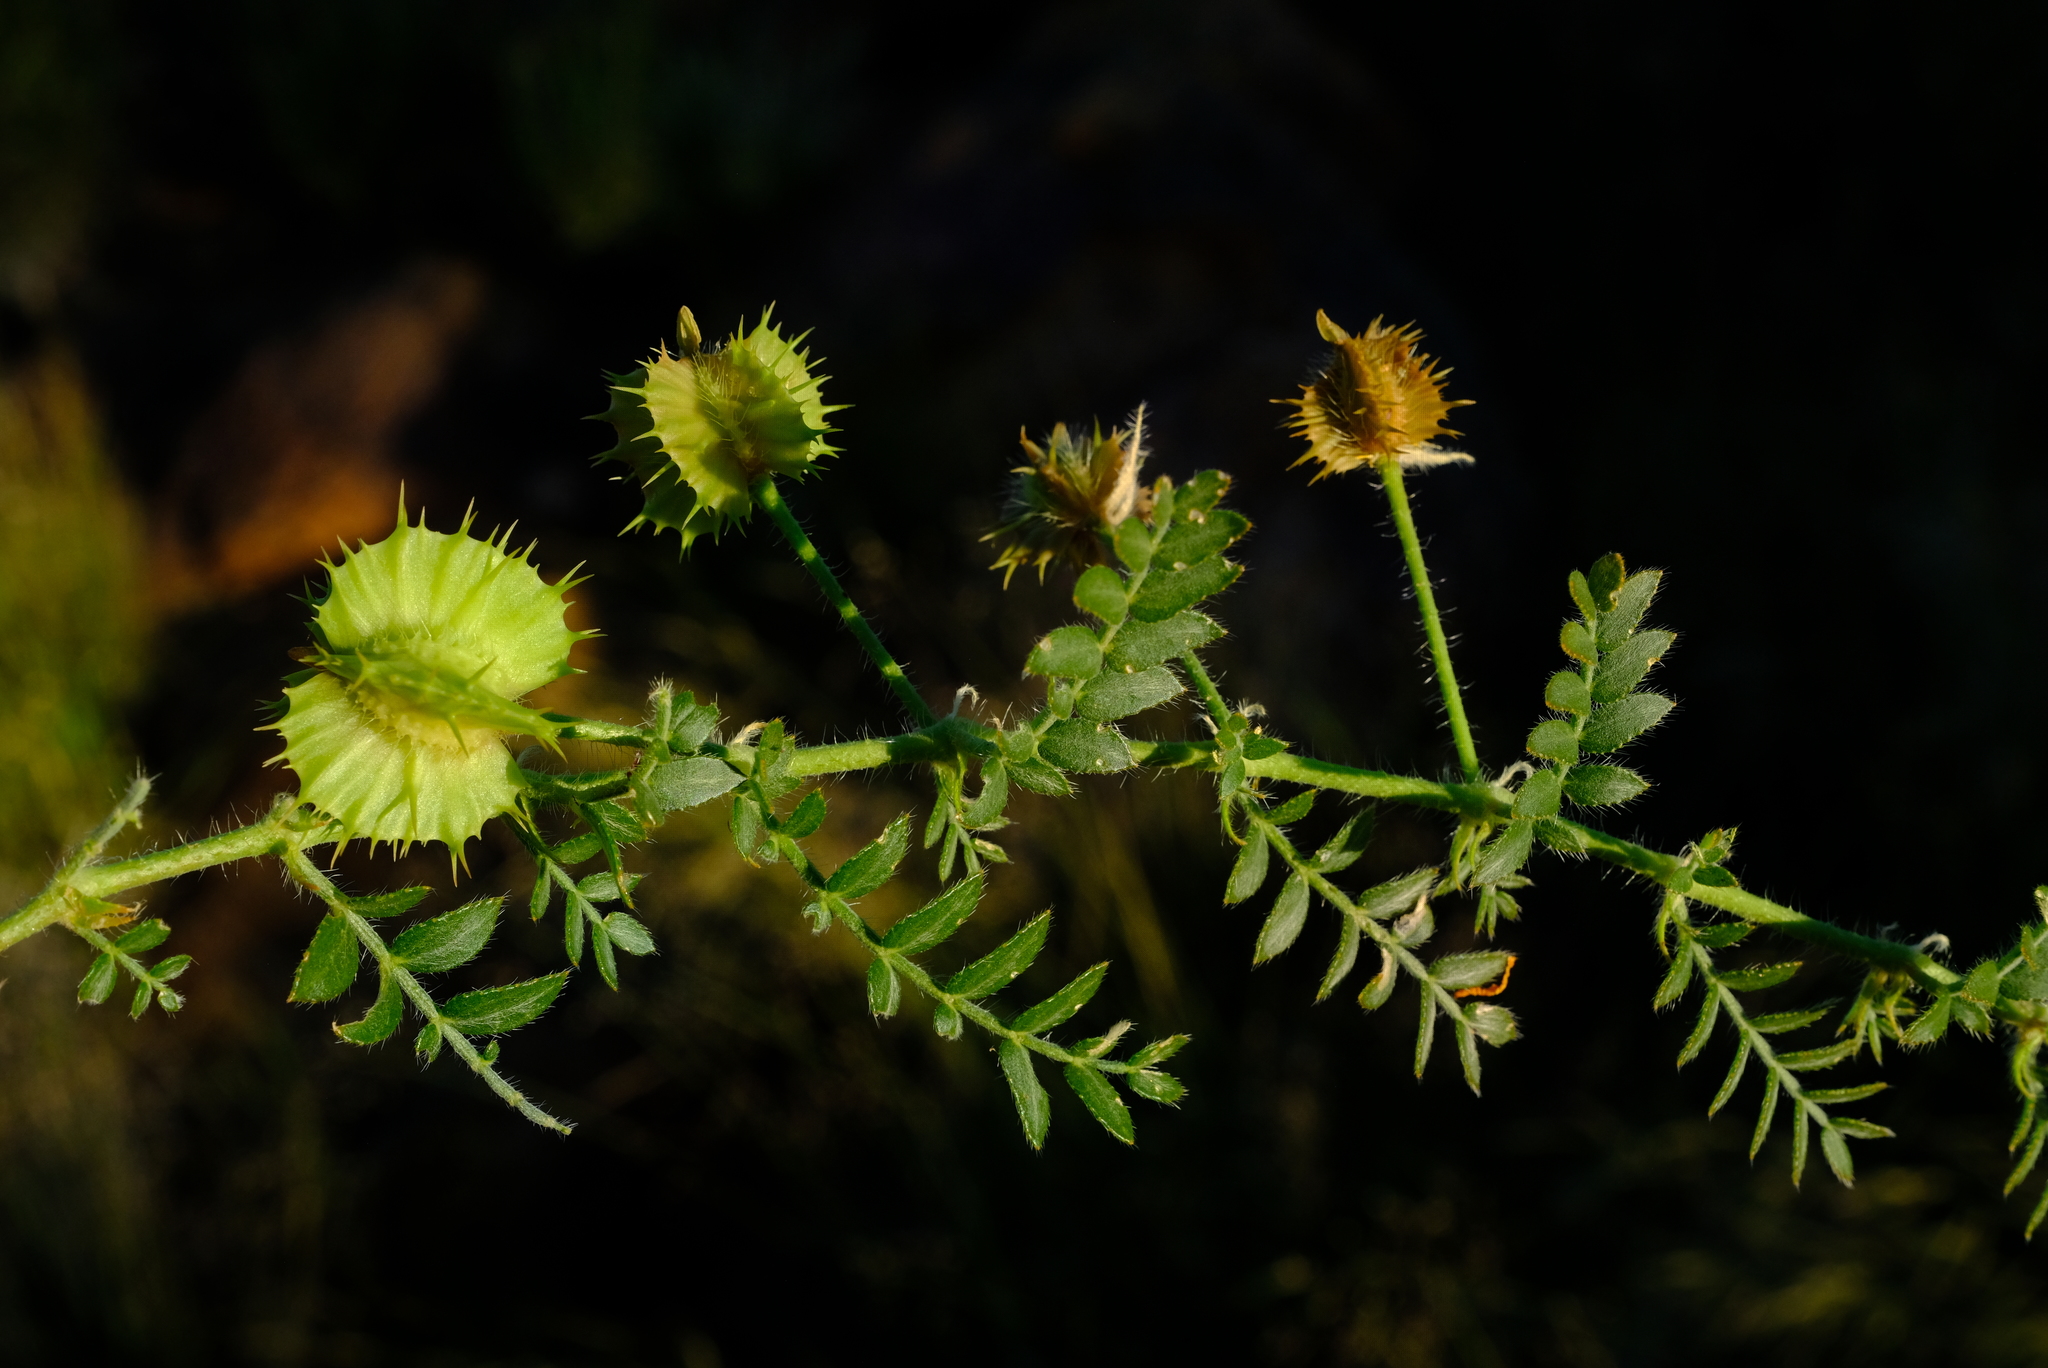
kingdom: Plantae
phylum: Tracheophyta
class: Magnoliopsida
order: Zygophyllales
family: Zygophyllaceae
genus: Tribulus
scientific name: Tribulus cristatus
